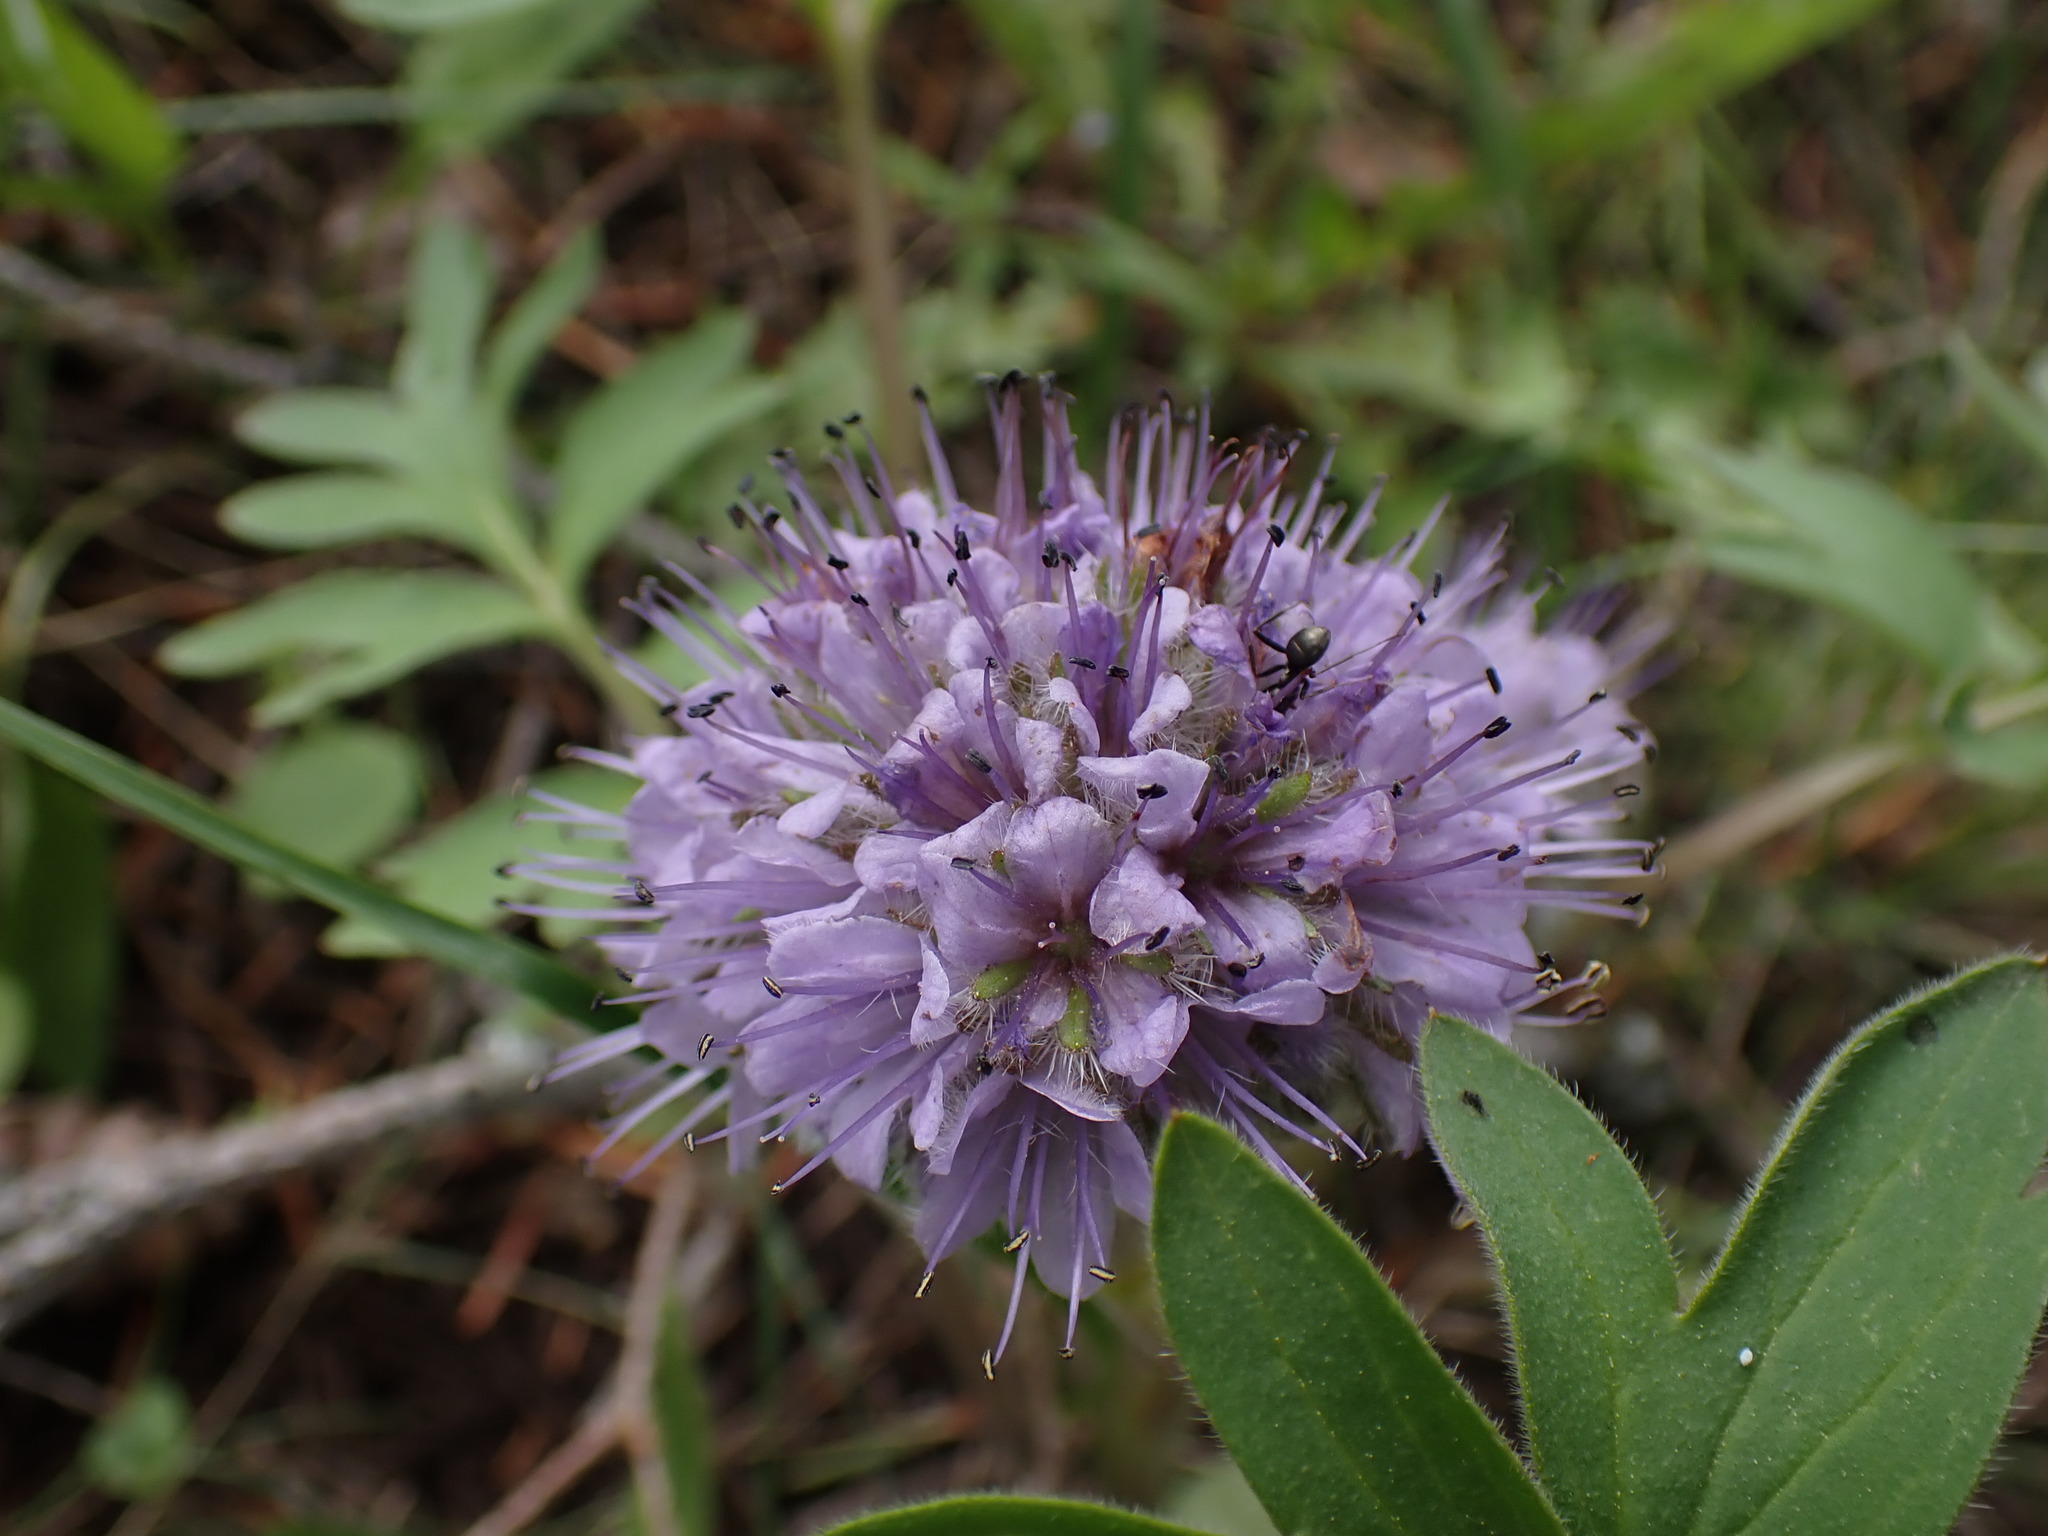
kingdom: Plantae
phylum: Tracheophyta
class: Magnoliopsida
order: Boraginales
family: Hydrophyllaceae
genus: Hydrophyllum
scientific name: Hydrophyllum capitatum
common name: Woollen-breeches
